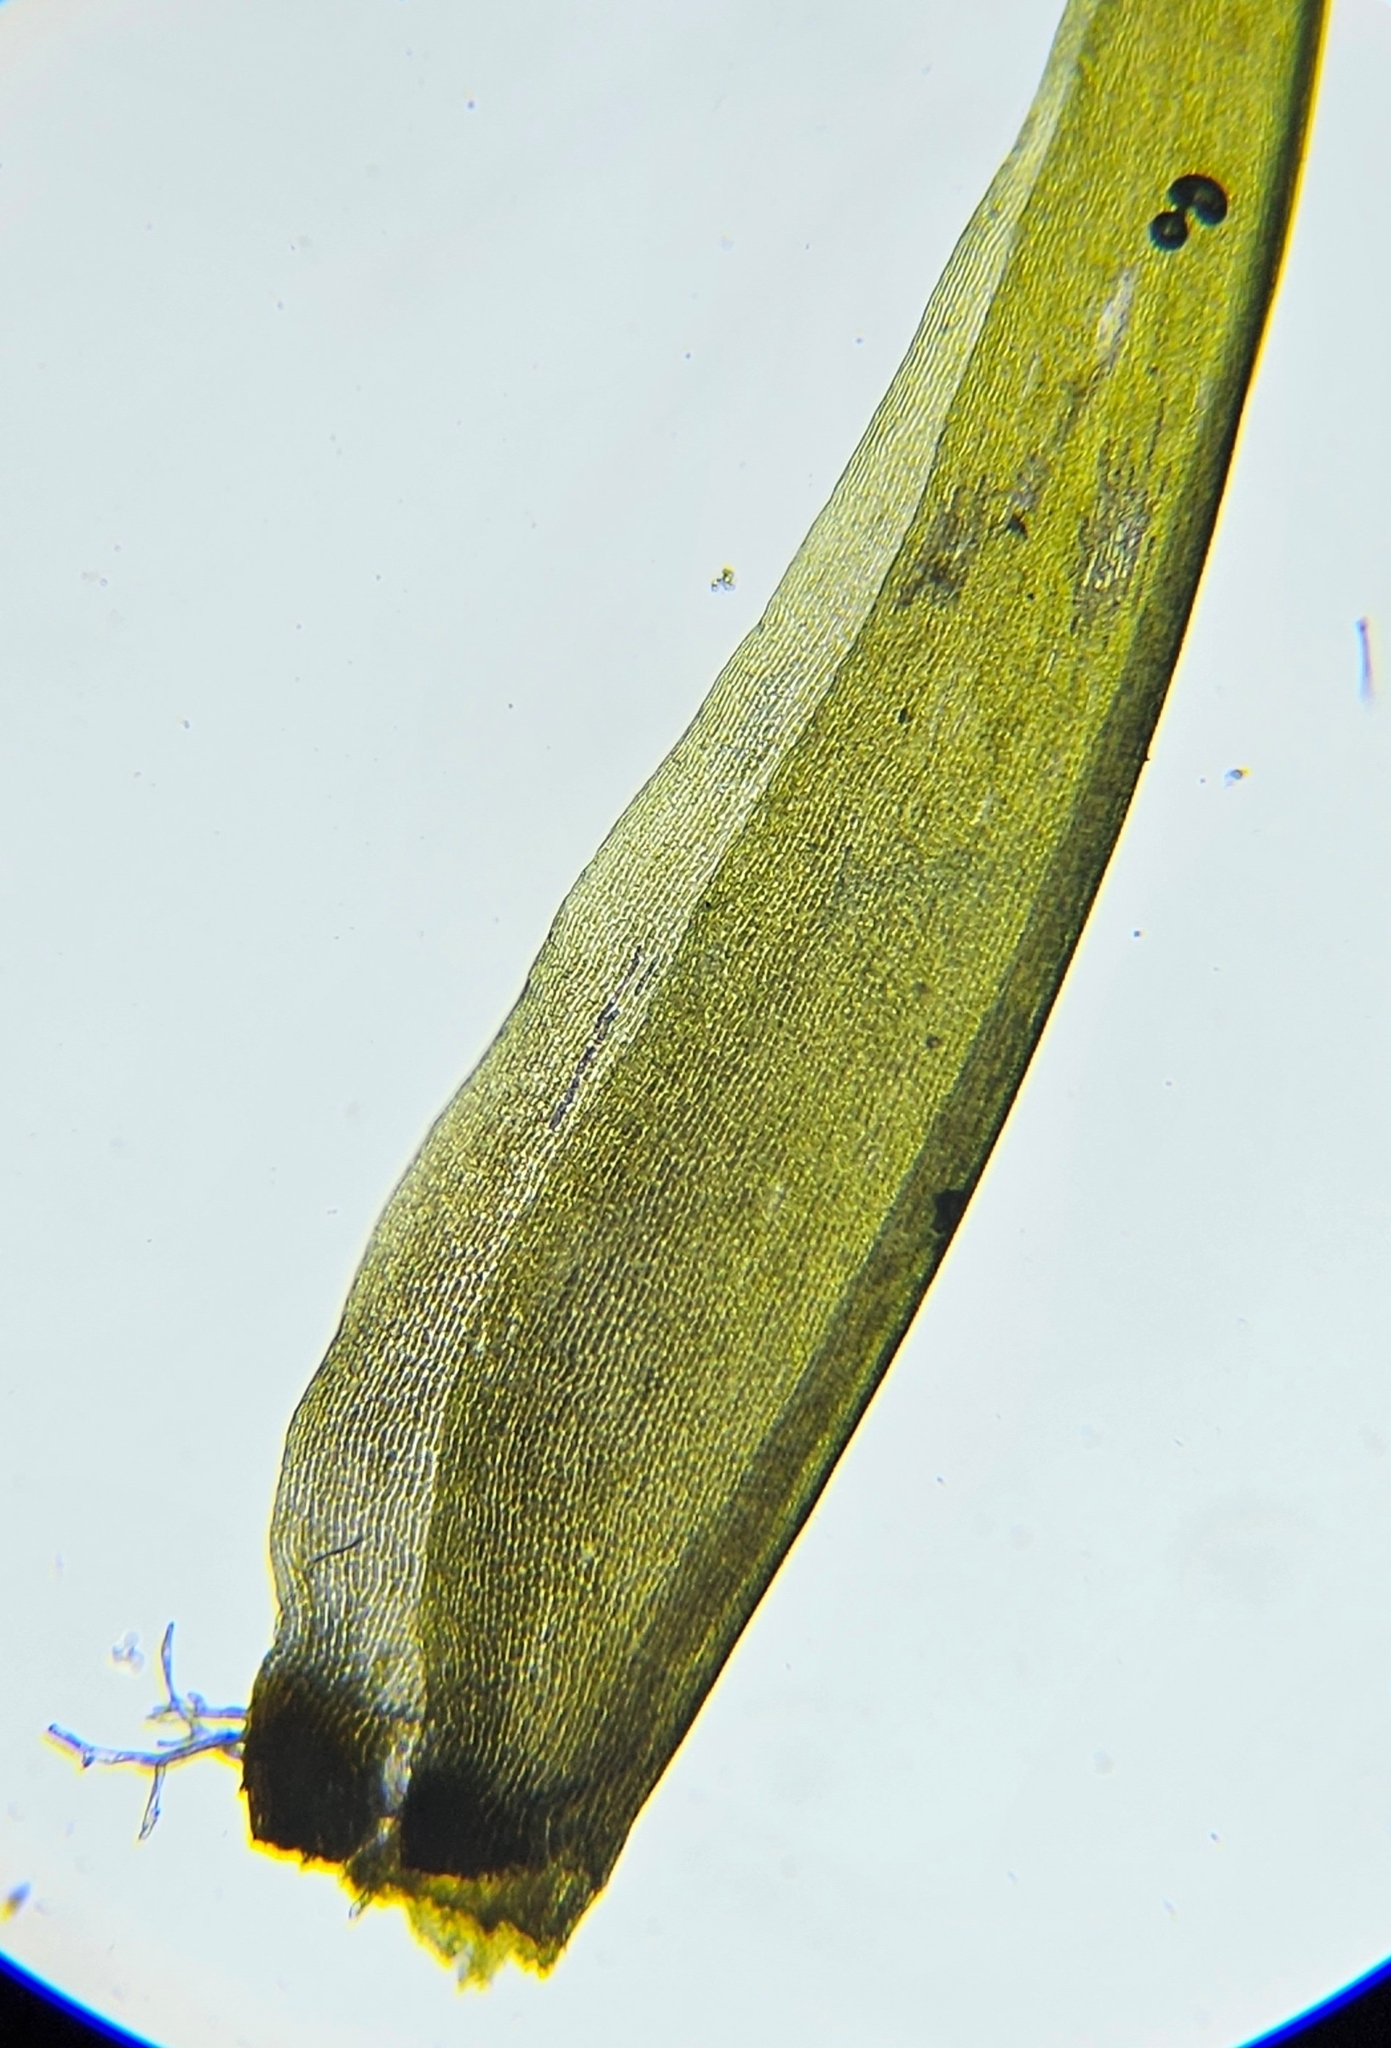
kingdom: Plantae
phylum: Bryophyta
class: Bryopsida
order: Dicranales
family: Dicranaceae
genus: Dicranum
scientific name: Dicranum majus
